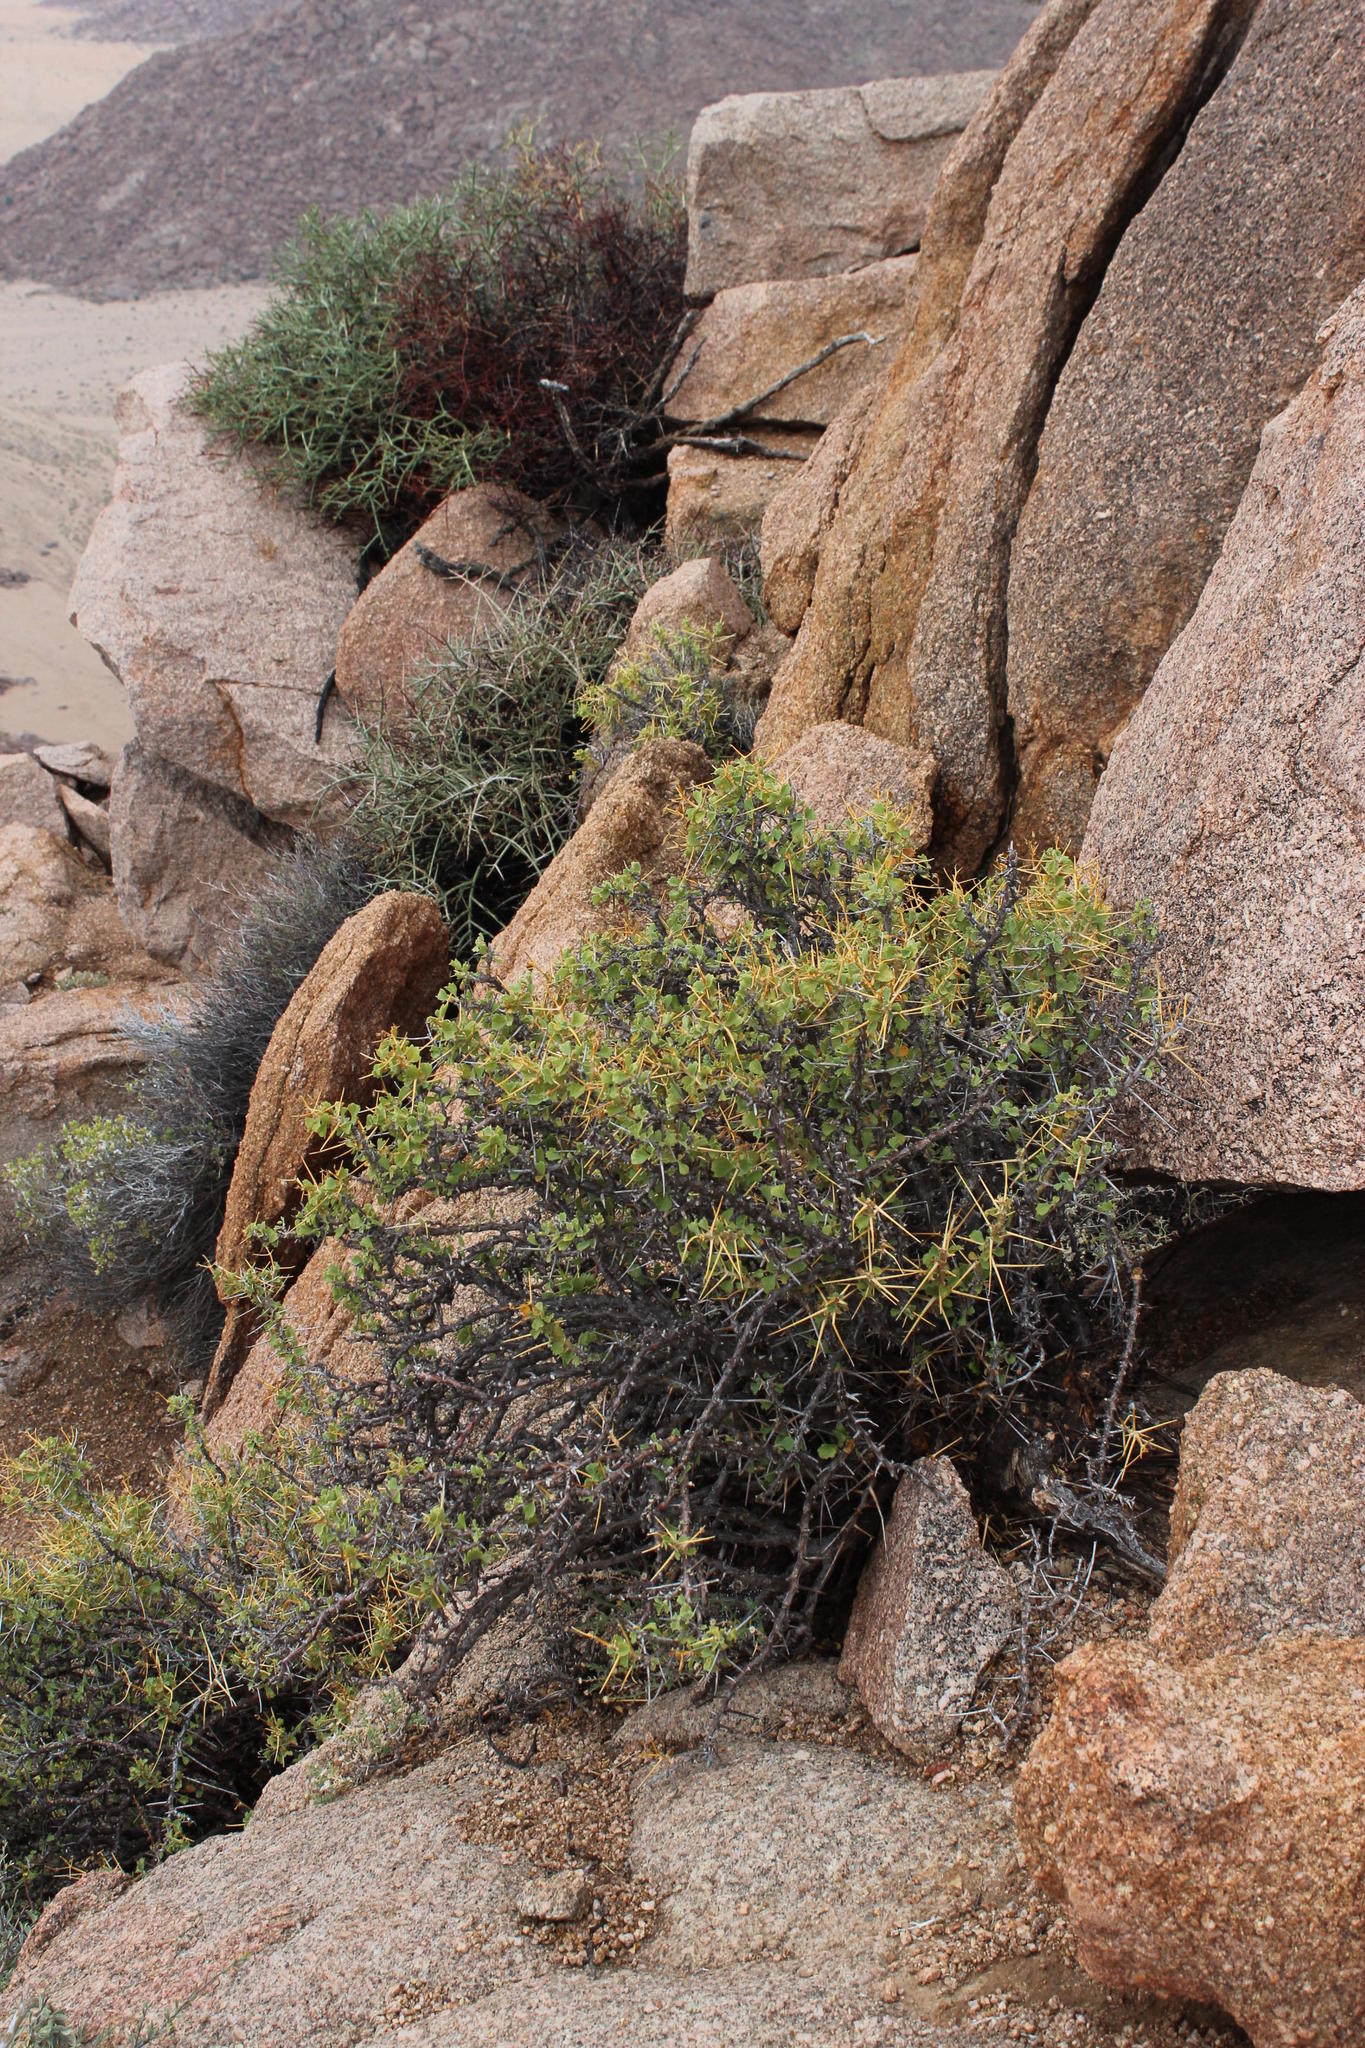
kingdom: Plantae
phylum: Tracheophyta
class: Magnoliopsida
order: Geraniales
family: Geraniaceae
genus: Pelargonium
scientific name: Pelargonium spinosum
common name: Thorny pelargonium
